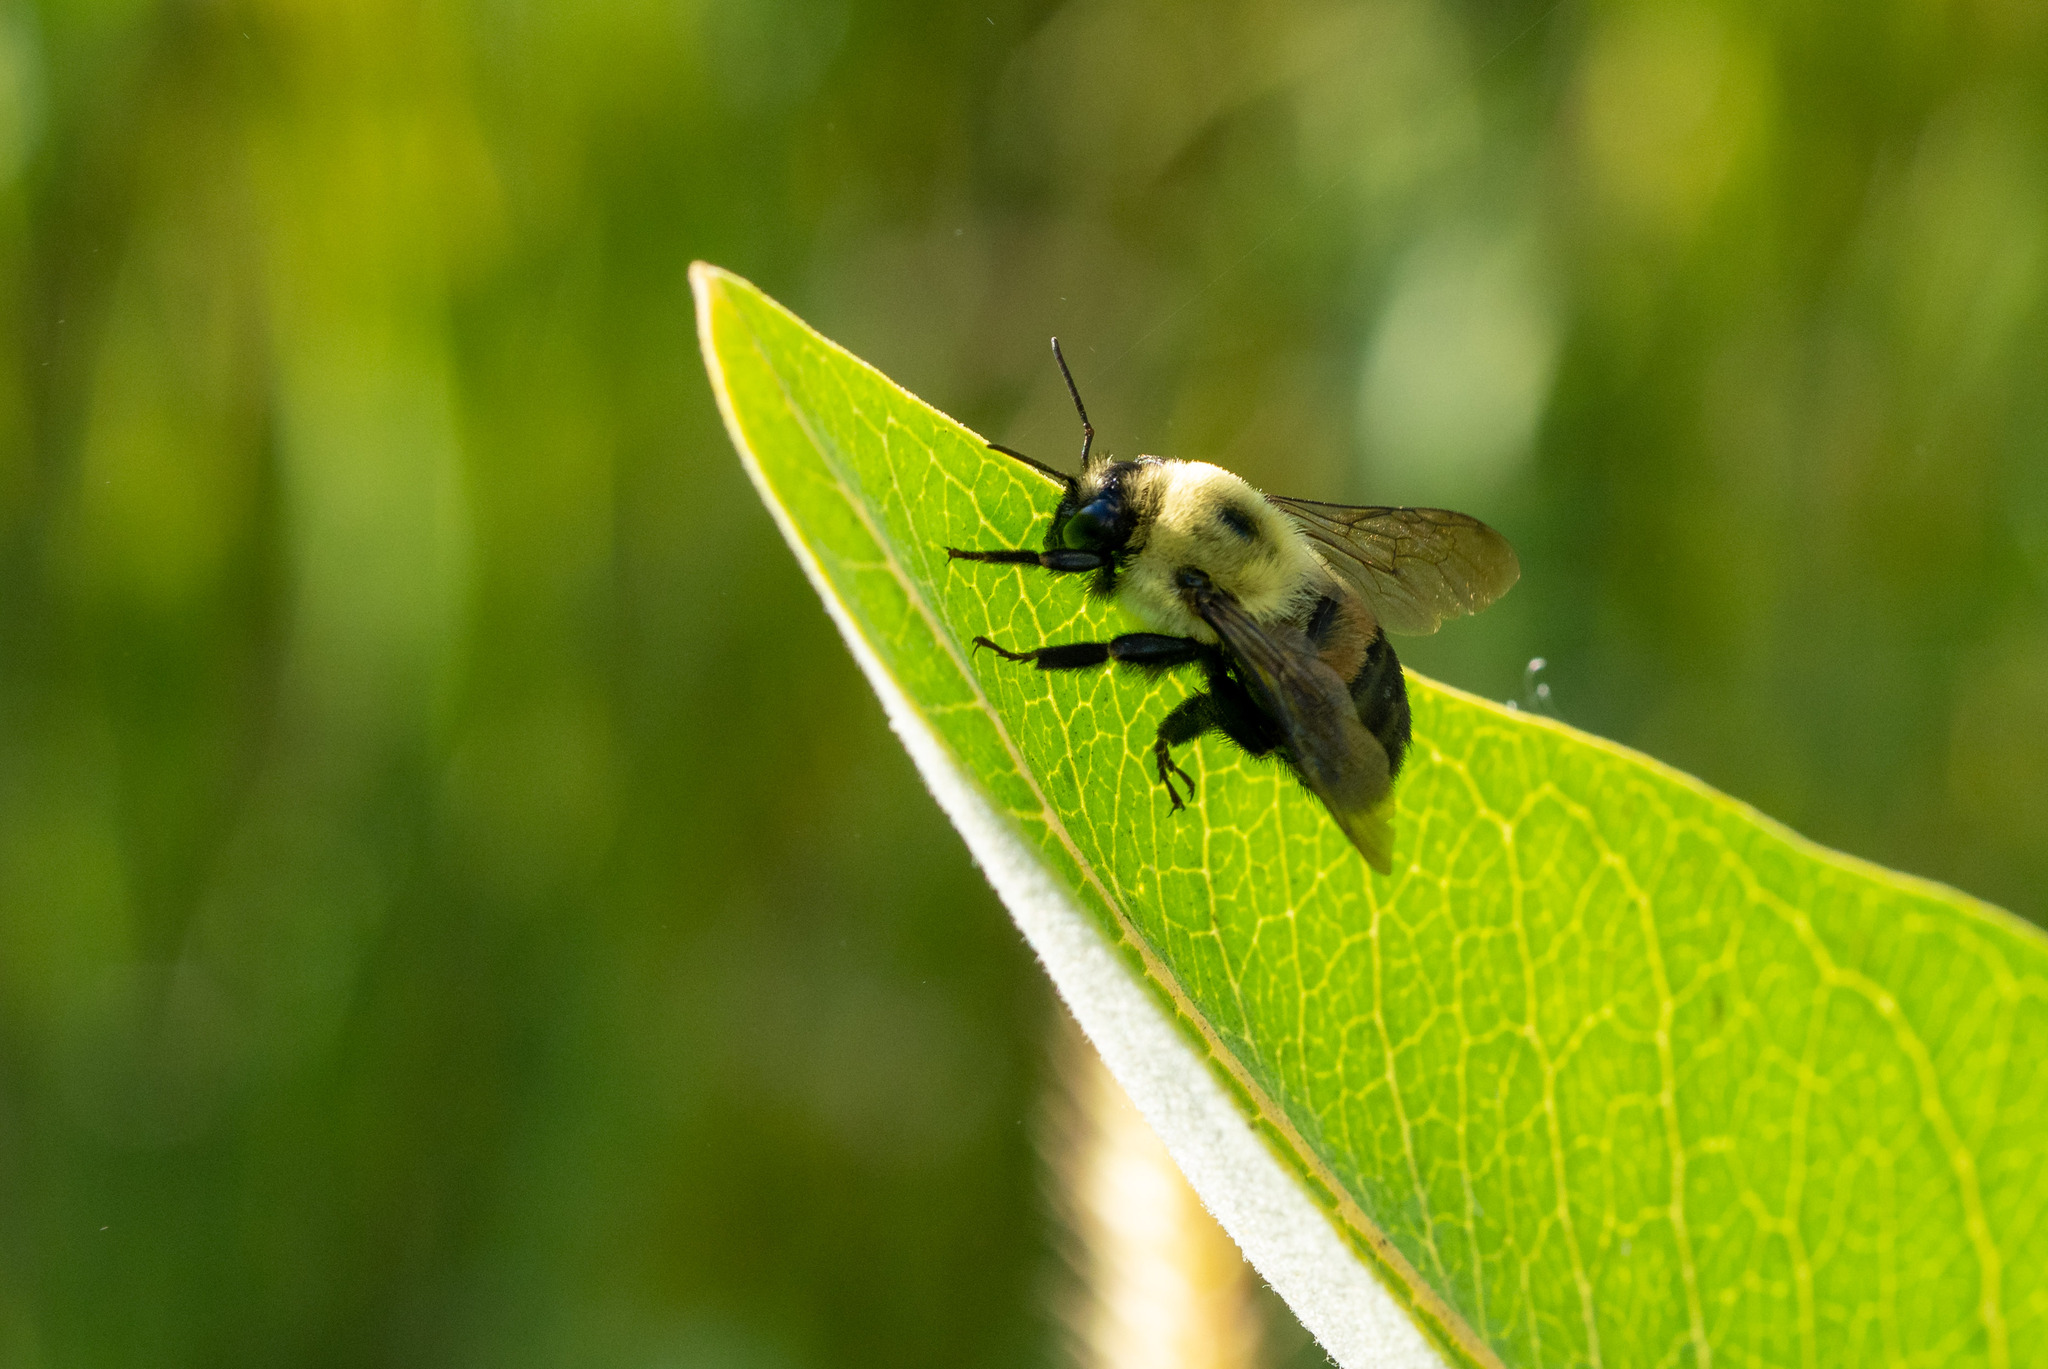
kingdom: Animalia
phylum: Arthropoda
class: Insecta
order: Hymenoptera
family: Apidae
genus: Bombus
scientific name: Bombus griseocollis
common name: Brown-belted bumble bee
